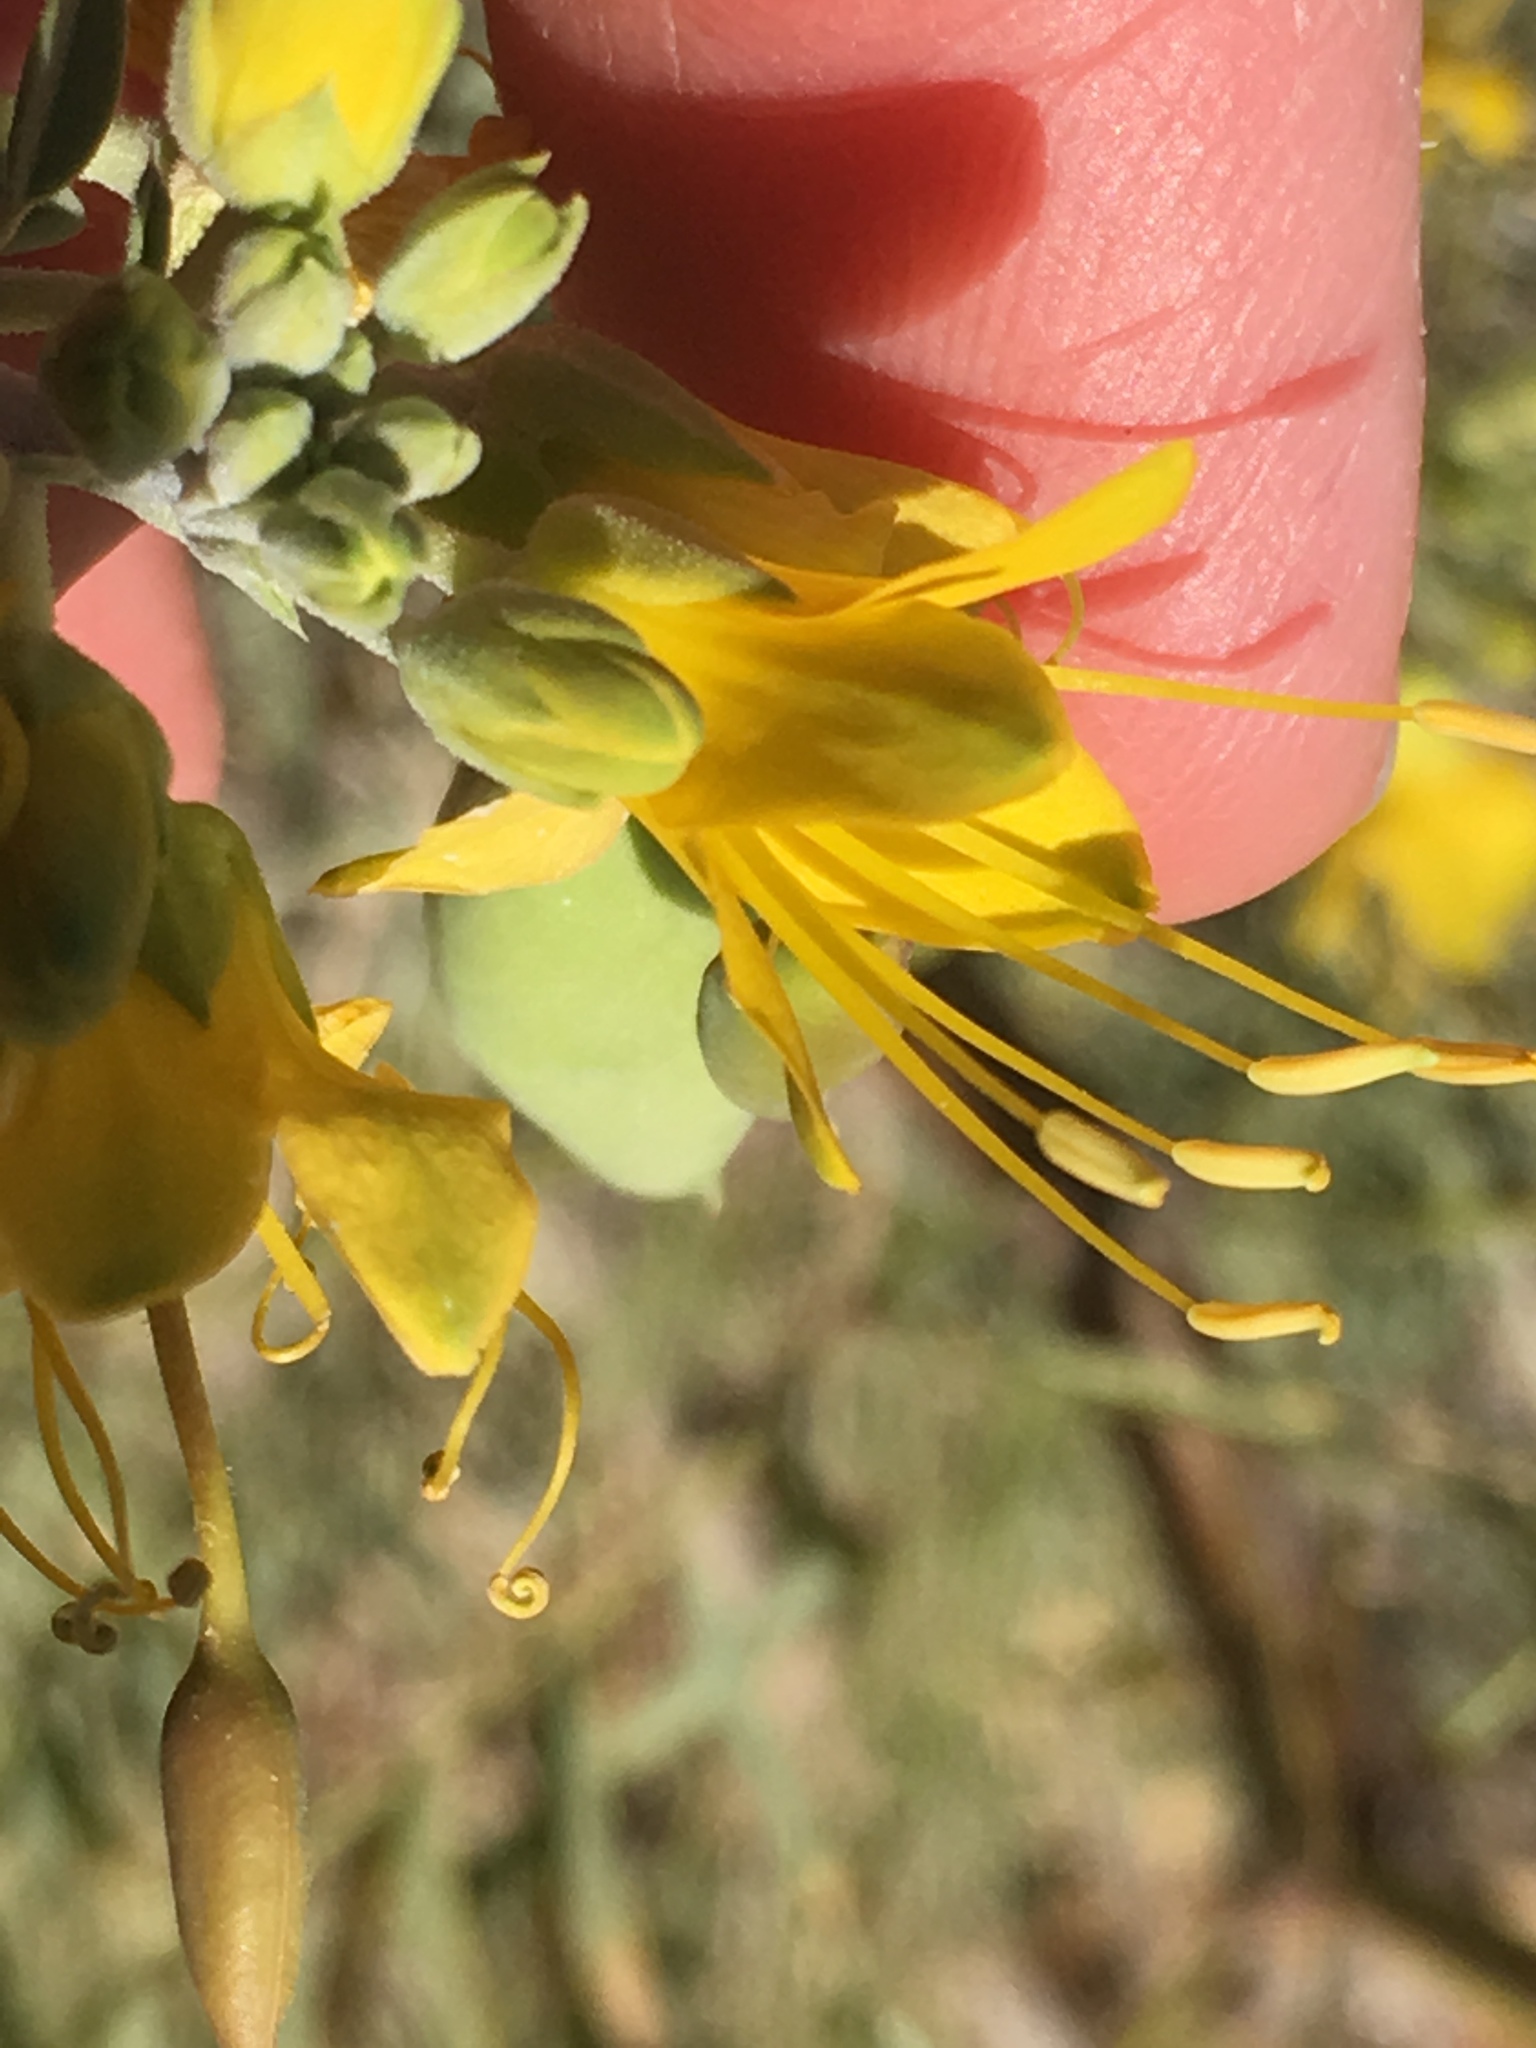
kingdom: Plantae
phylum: Tracheophyta
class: Magnoliopsida
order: Brassicales
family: Cleomaceae
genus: Cleomella
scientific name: Cleomella arborea
